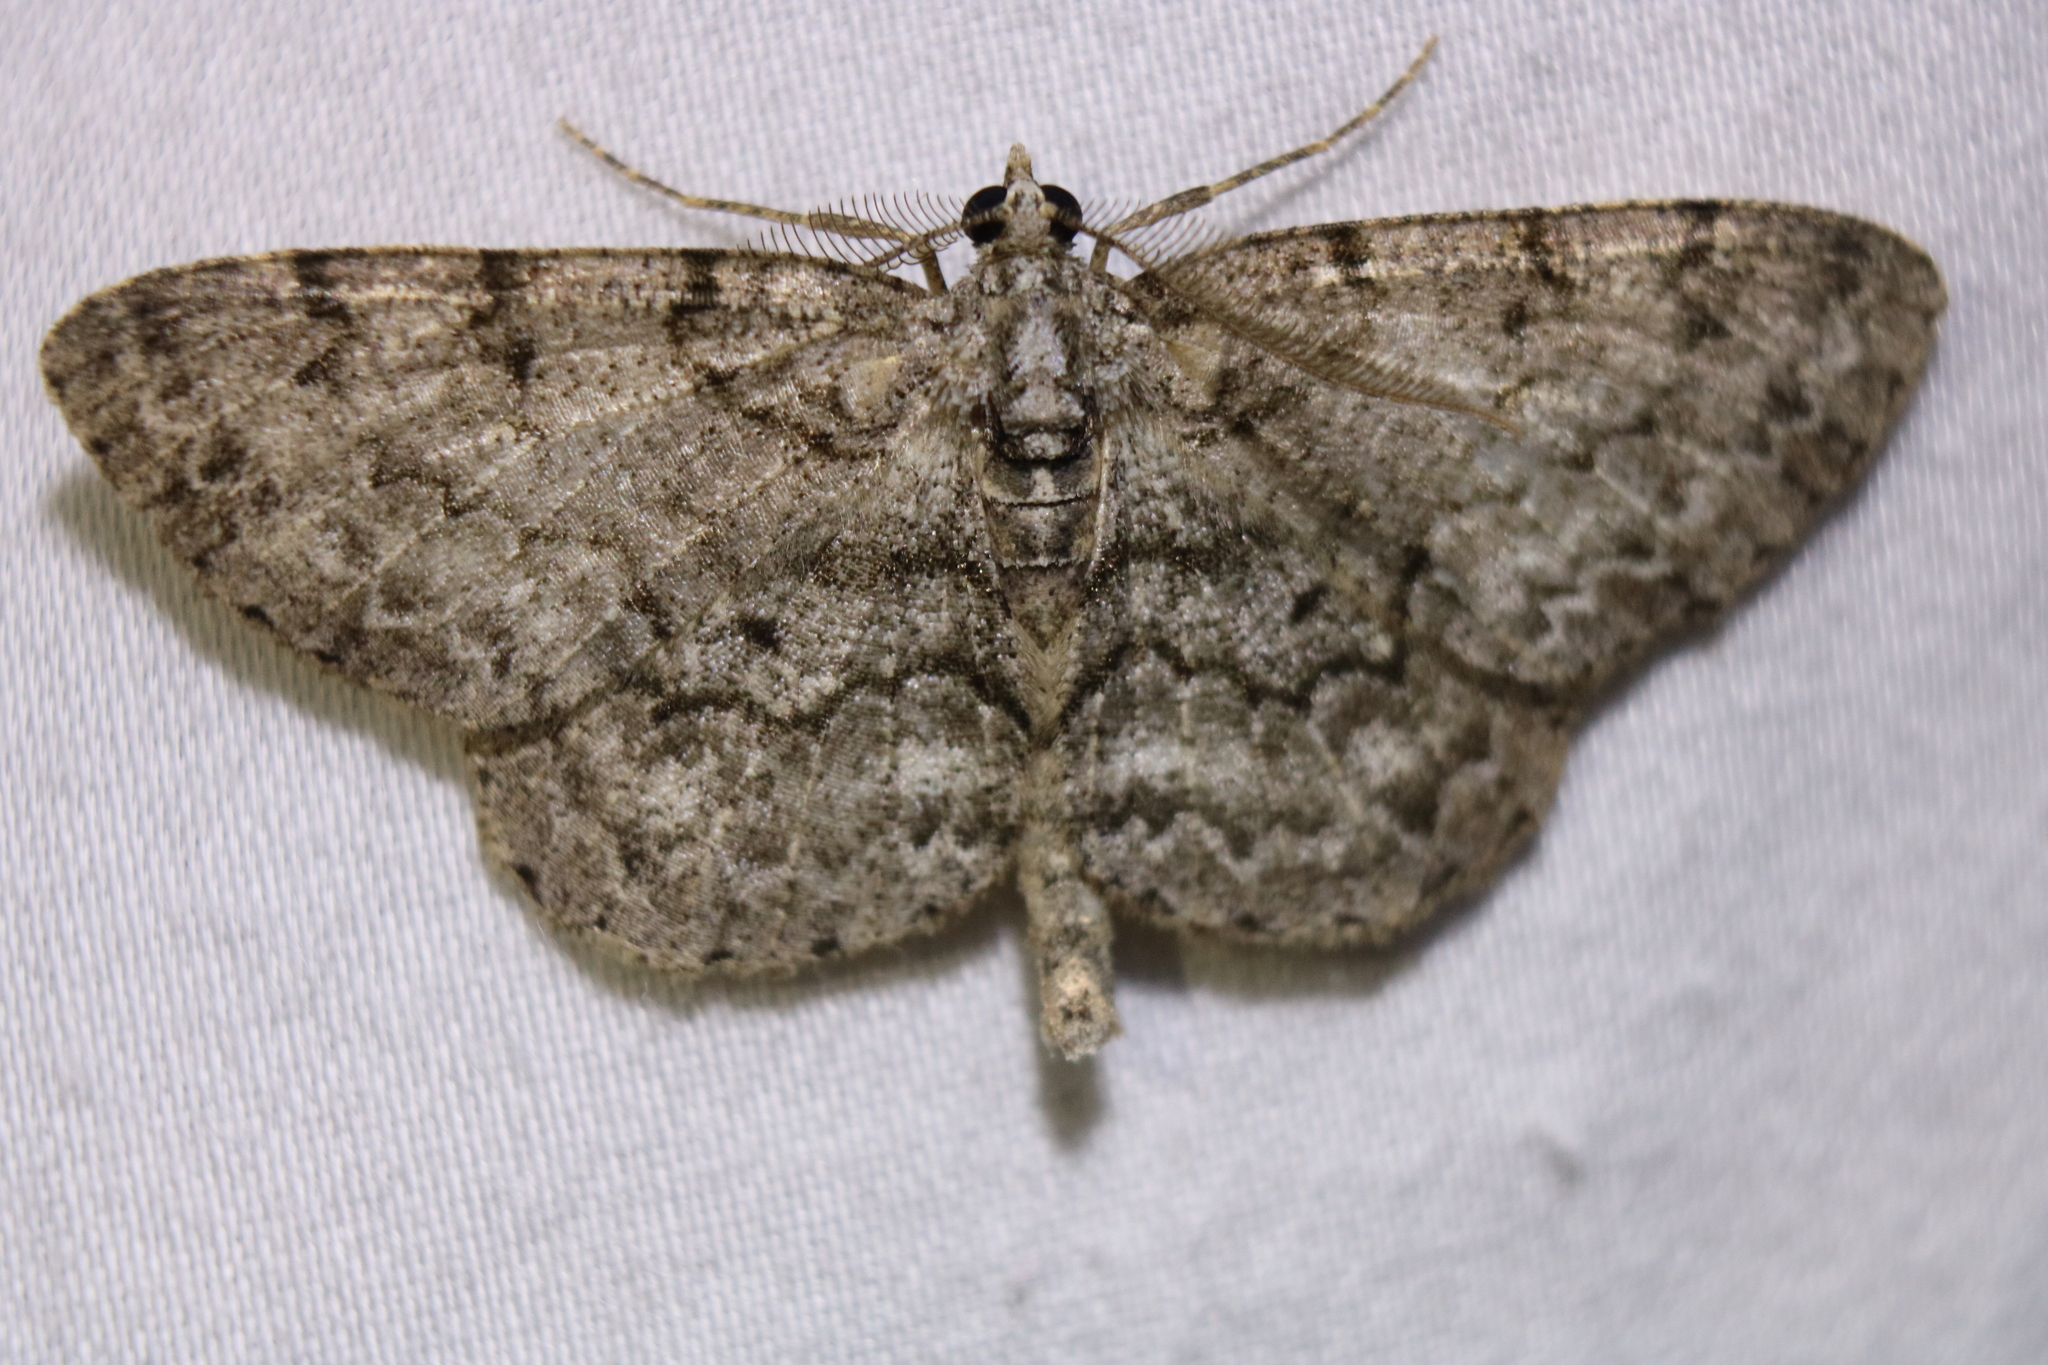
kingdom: Animalia
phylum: Arthropoda
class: Insecta
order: Lepidoptera
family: Geometridae
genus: Protoboarmia
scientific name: Protoboarmia porcelaria
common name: Porcelain gray
